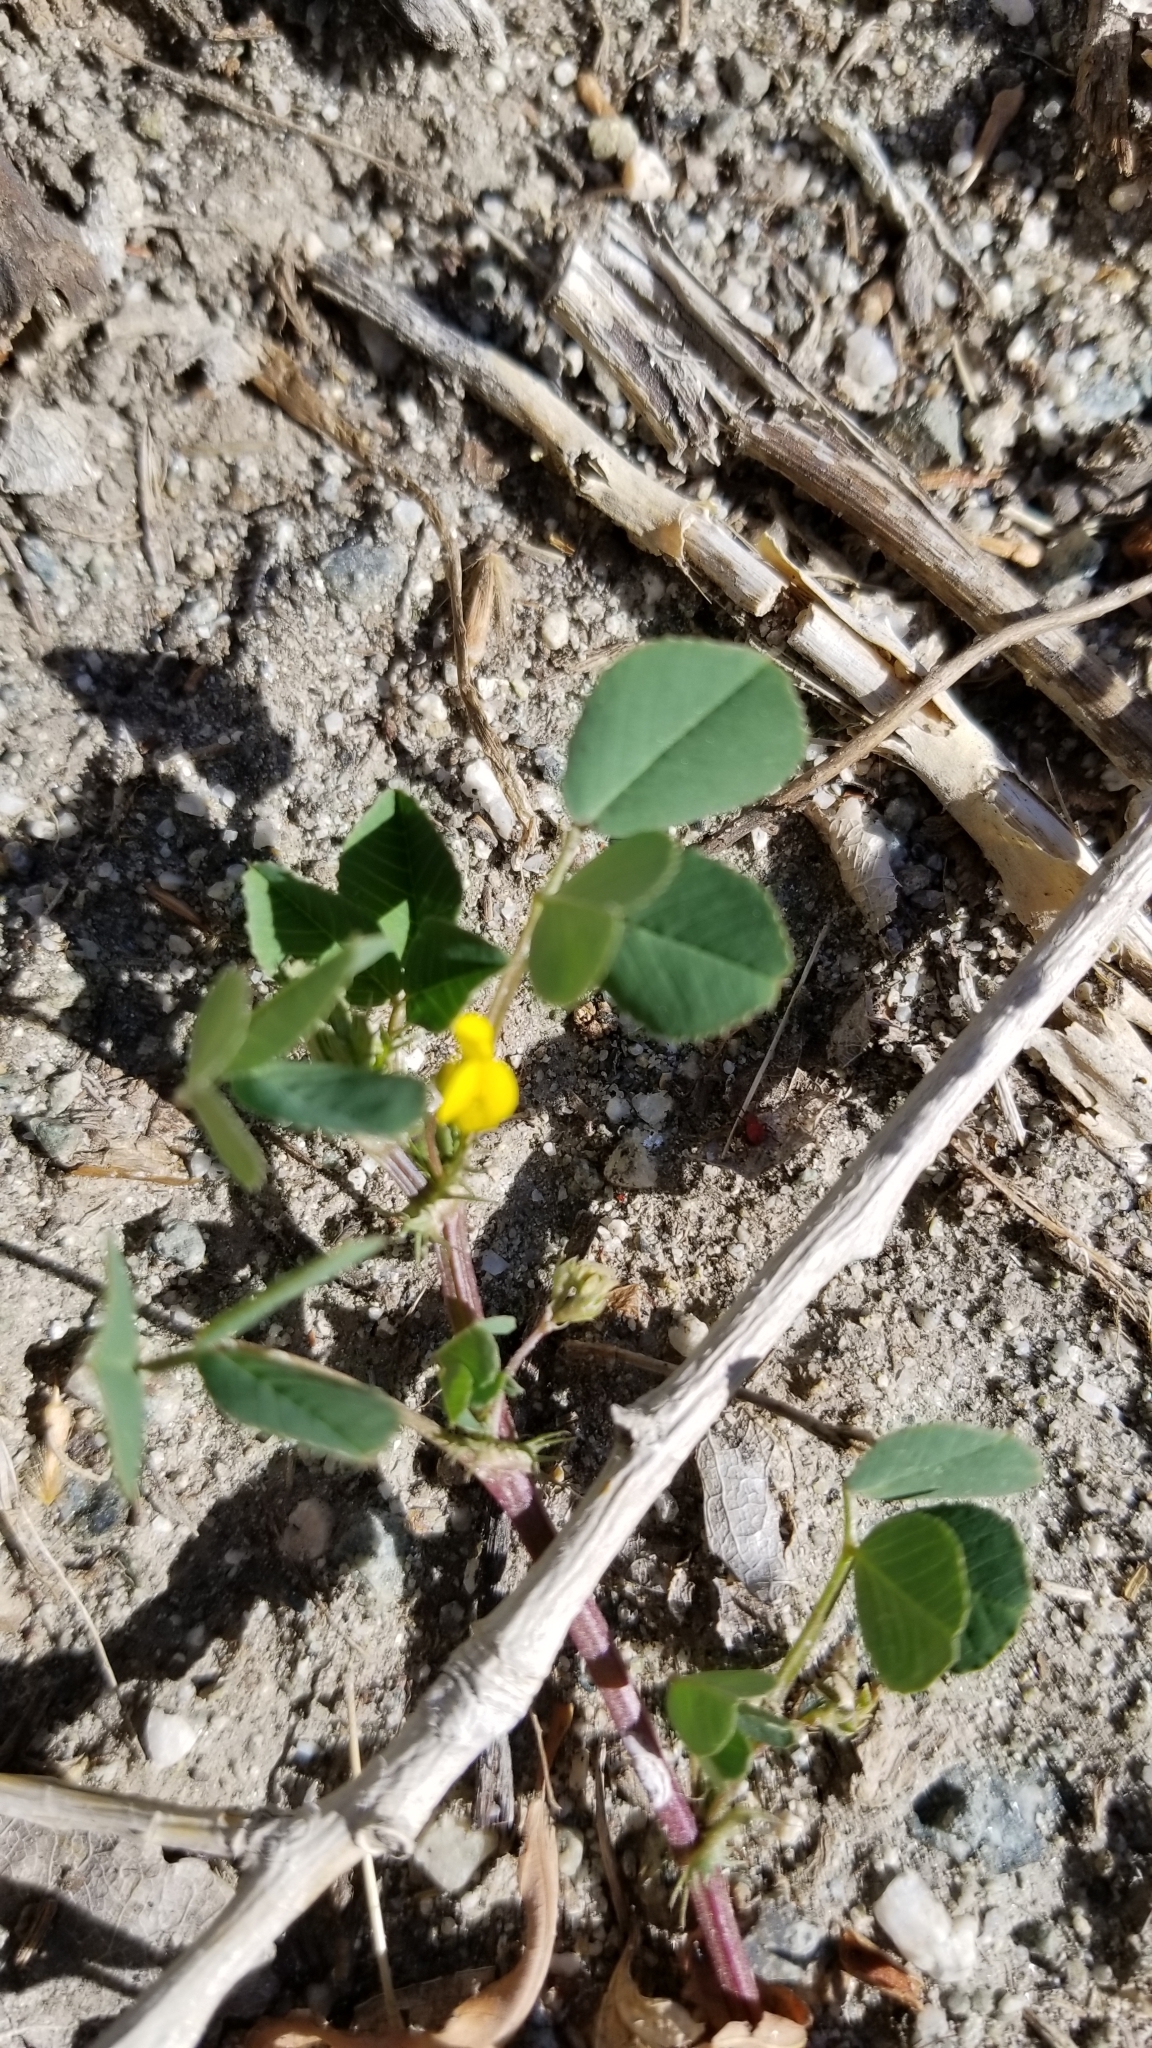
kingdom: Plantae
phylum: Tracheophyta
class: Magnoliopsida
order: Fabales
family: Fabaceae
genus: Medicago
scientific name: Medicago polymorpha
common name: Burclover
